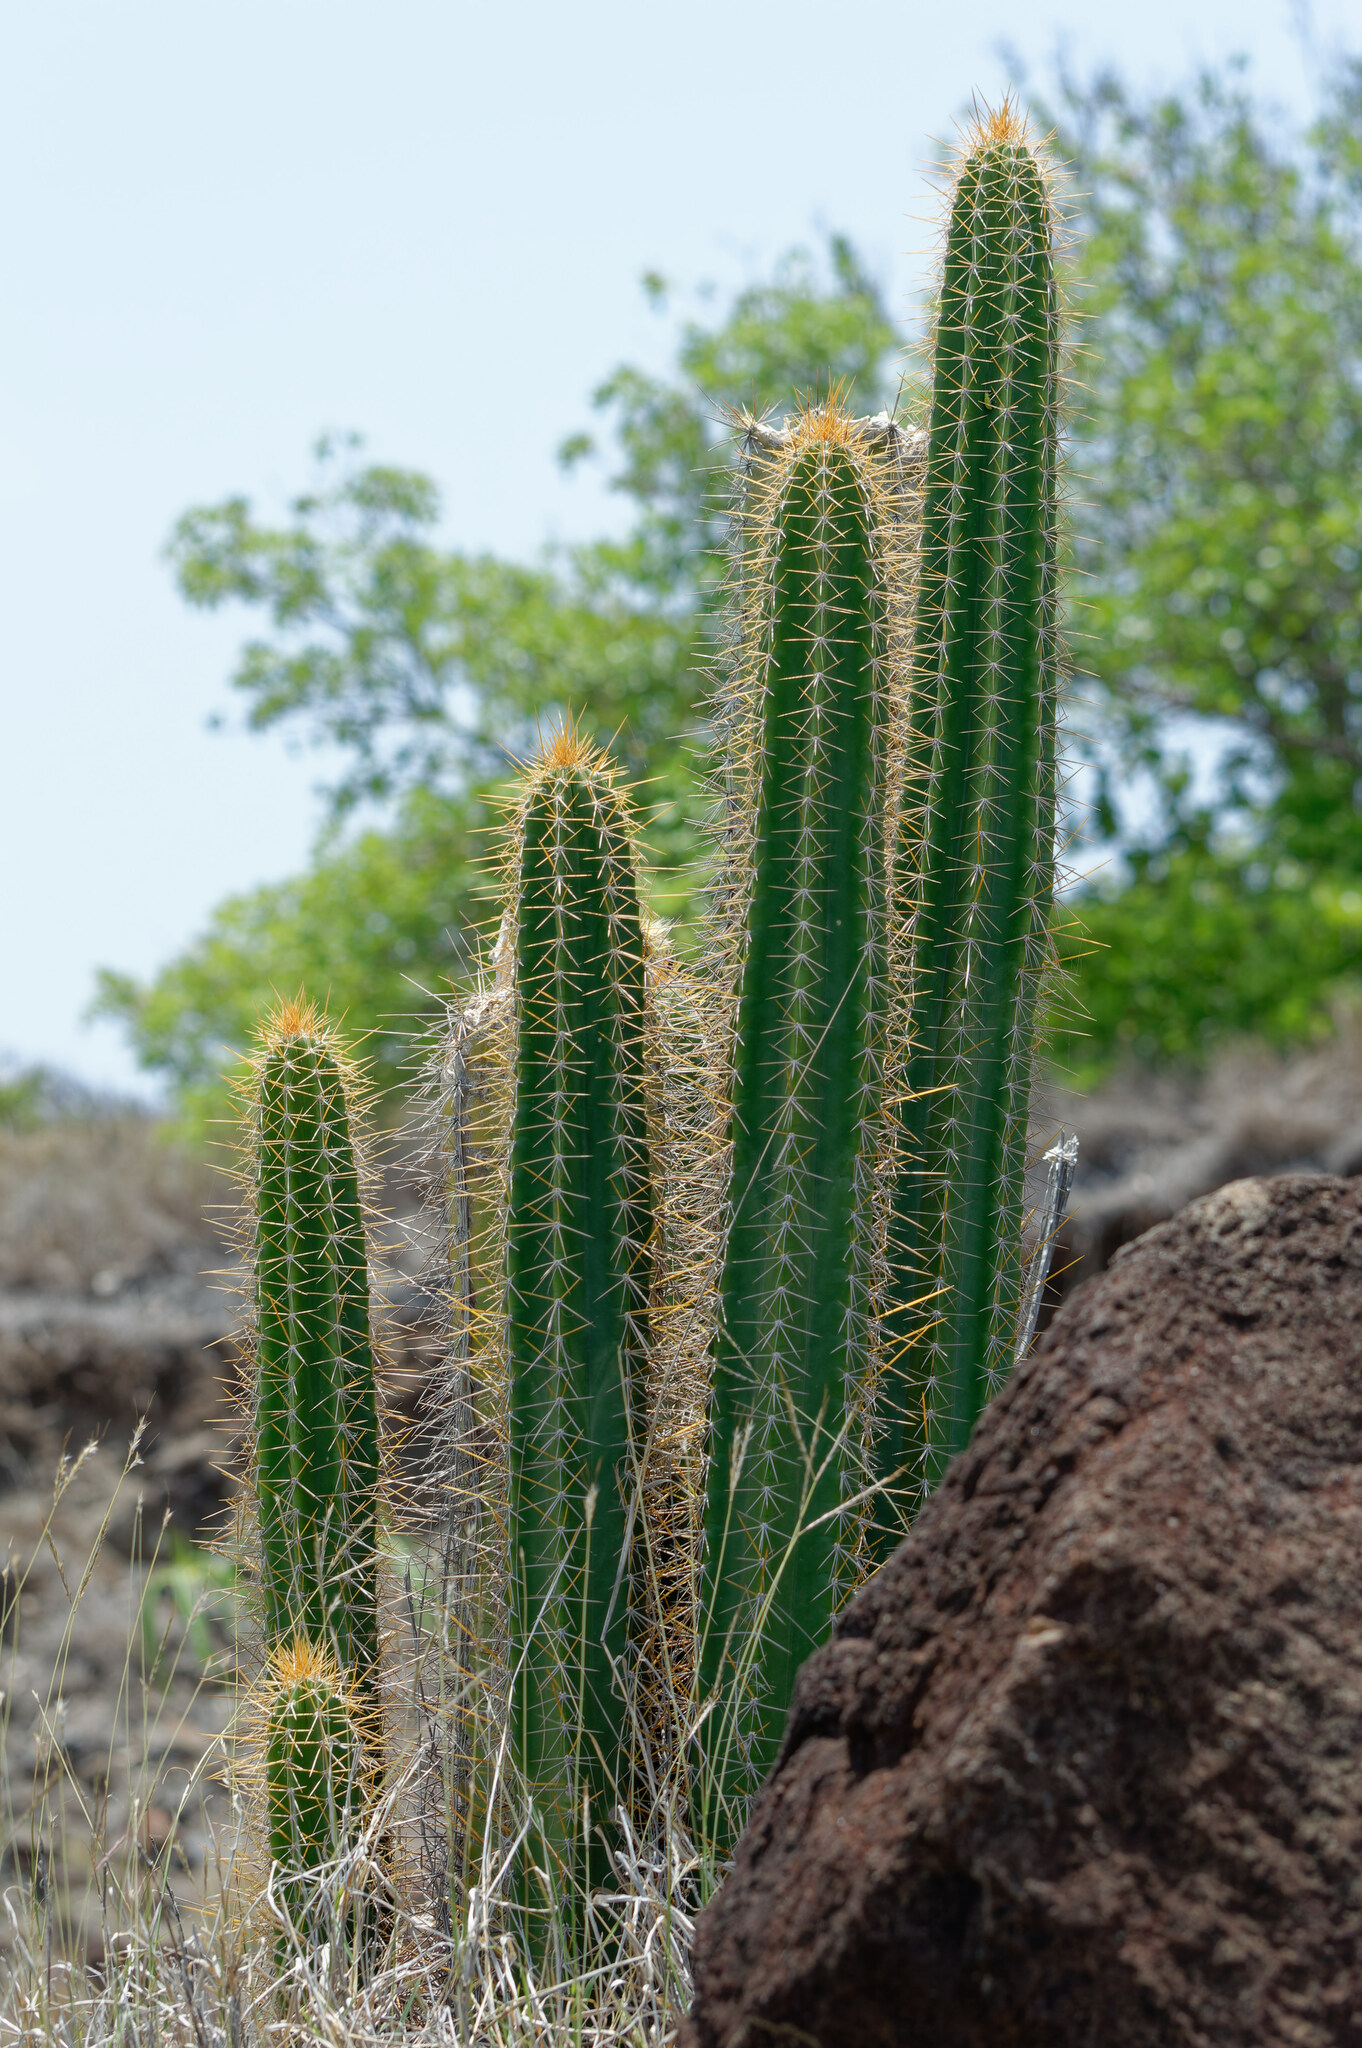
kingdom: Plantae
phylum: Tracheophyta
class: Magnoliopsida
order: Caryophyllales
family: Cactaceae
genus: Pilosocereus
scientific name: Pilosocereus curtisii
